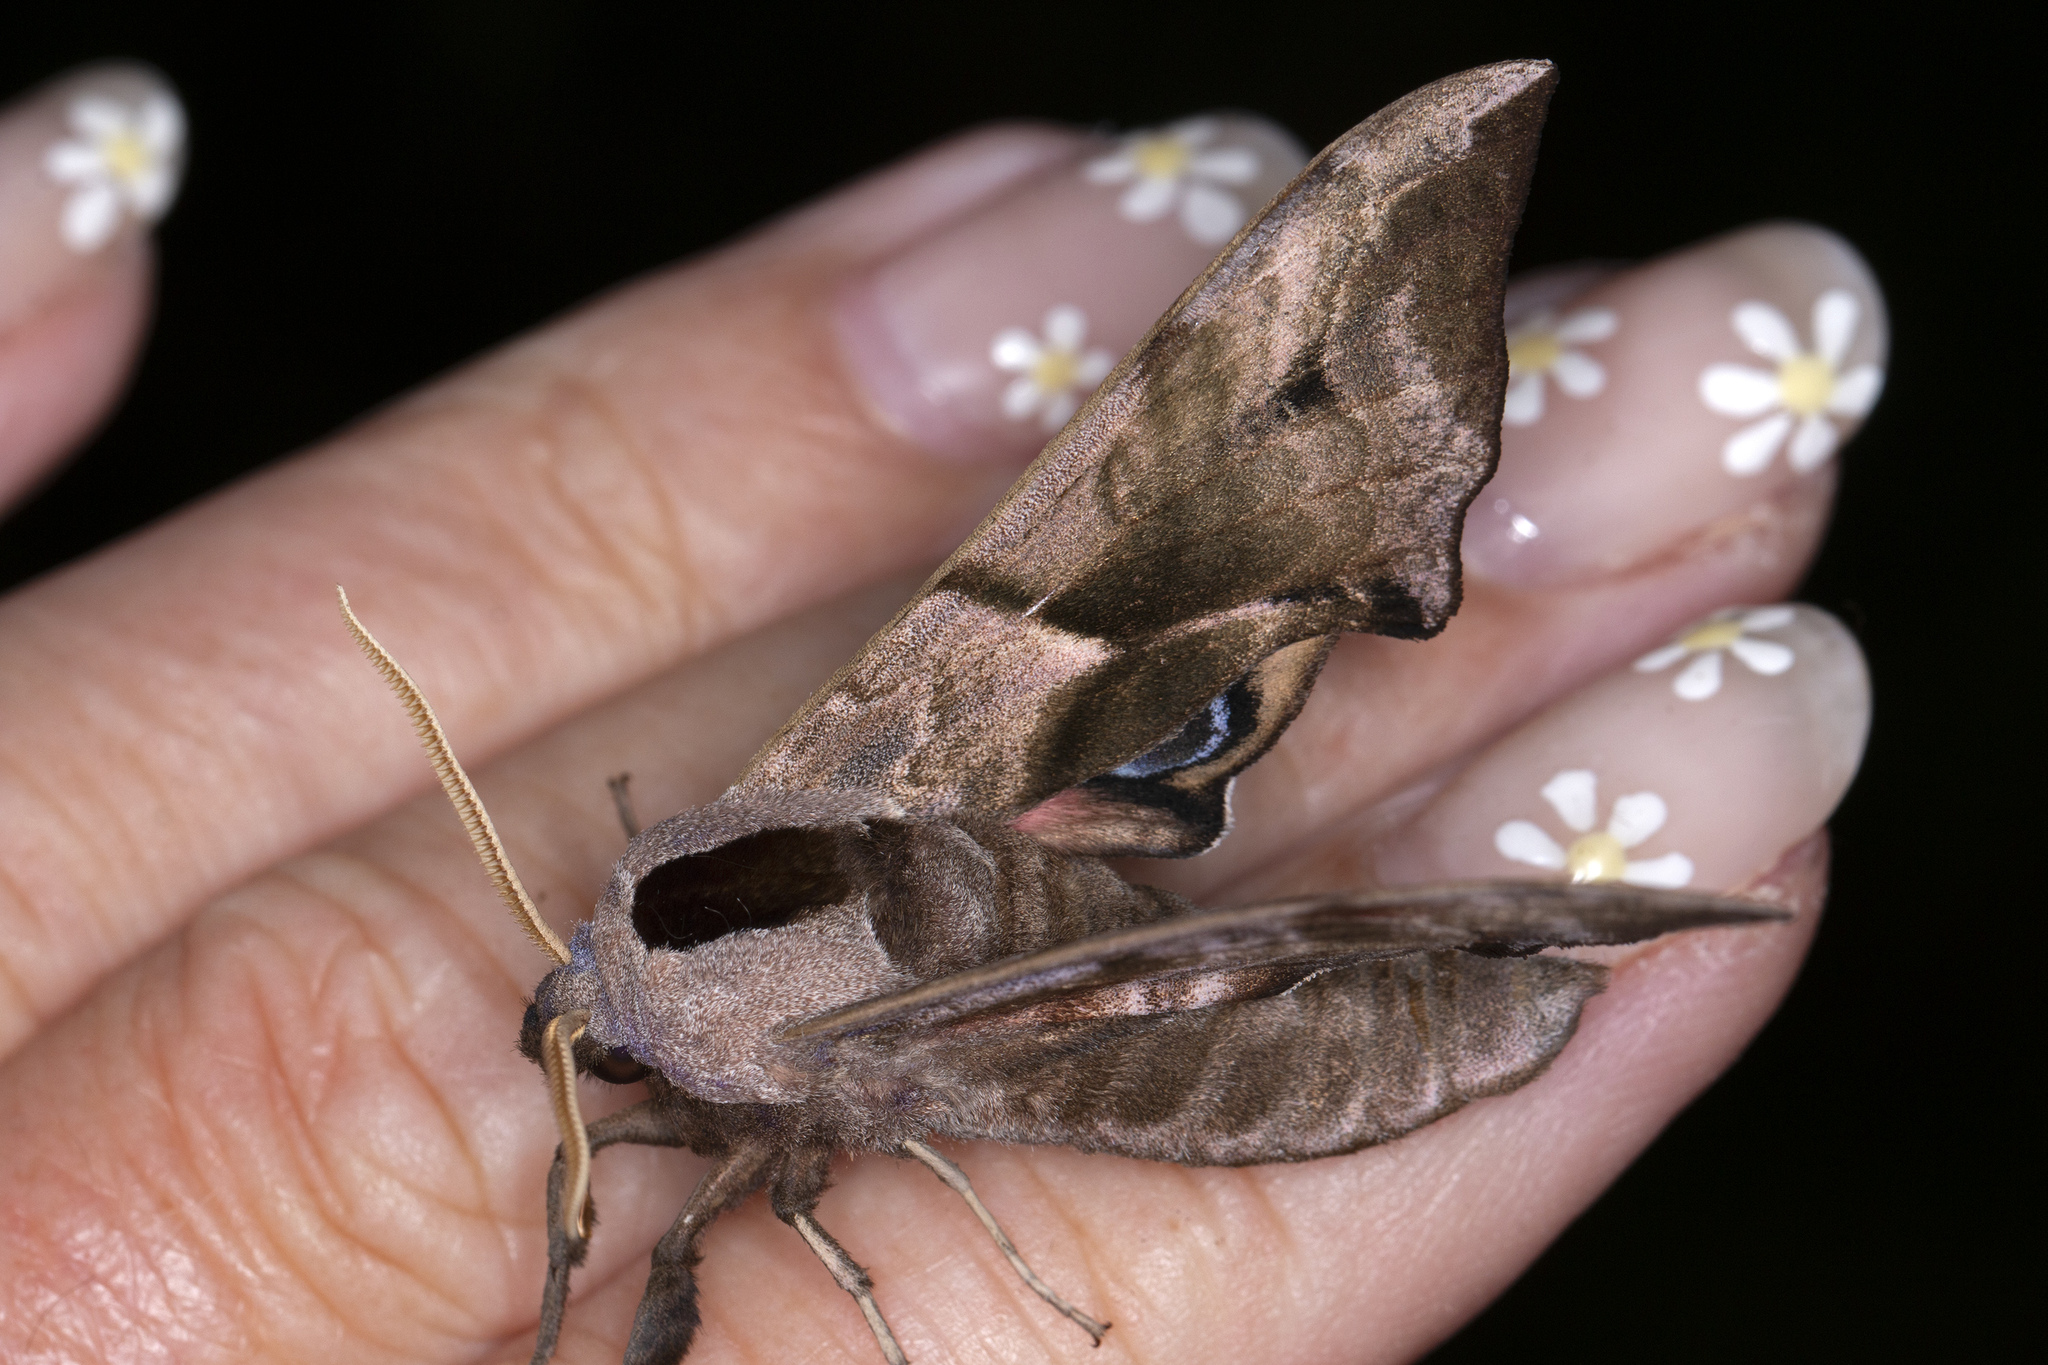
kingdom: Animalia
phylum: Arthropoda
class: Insecta
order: Lepidoptera
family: Sphingidae
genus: Smerinthus
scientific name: Smerinthus ocellata
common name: Eyed hawk-moth
